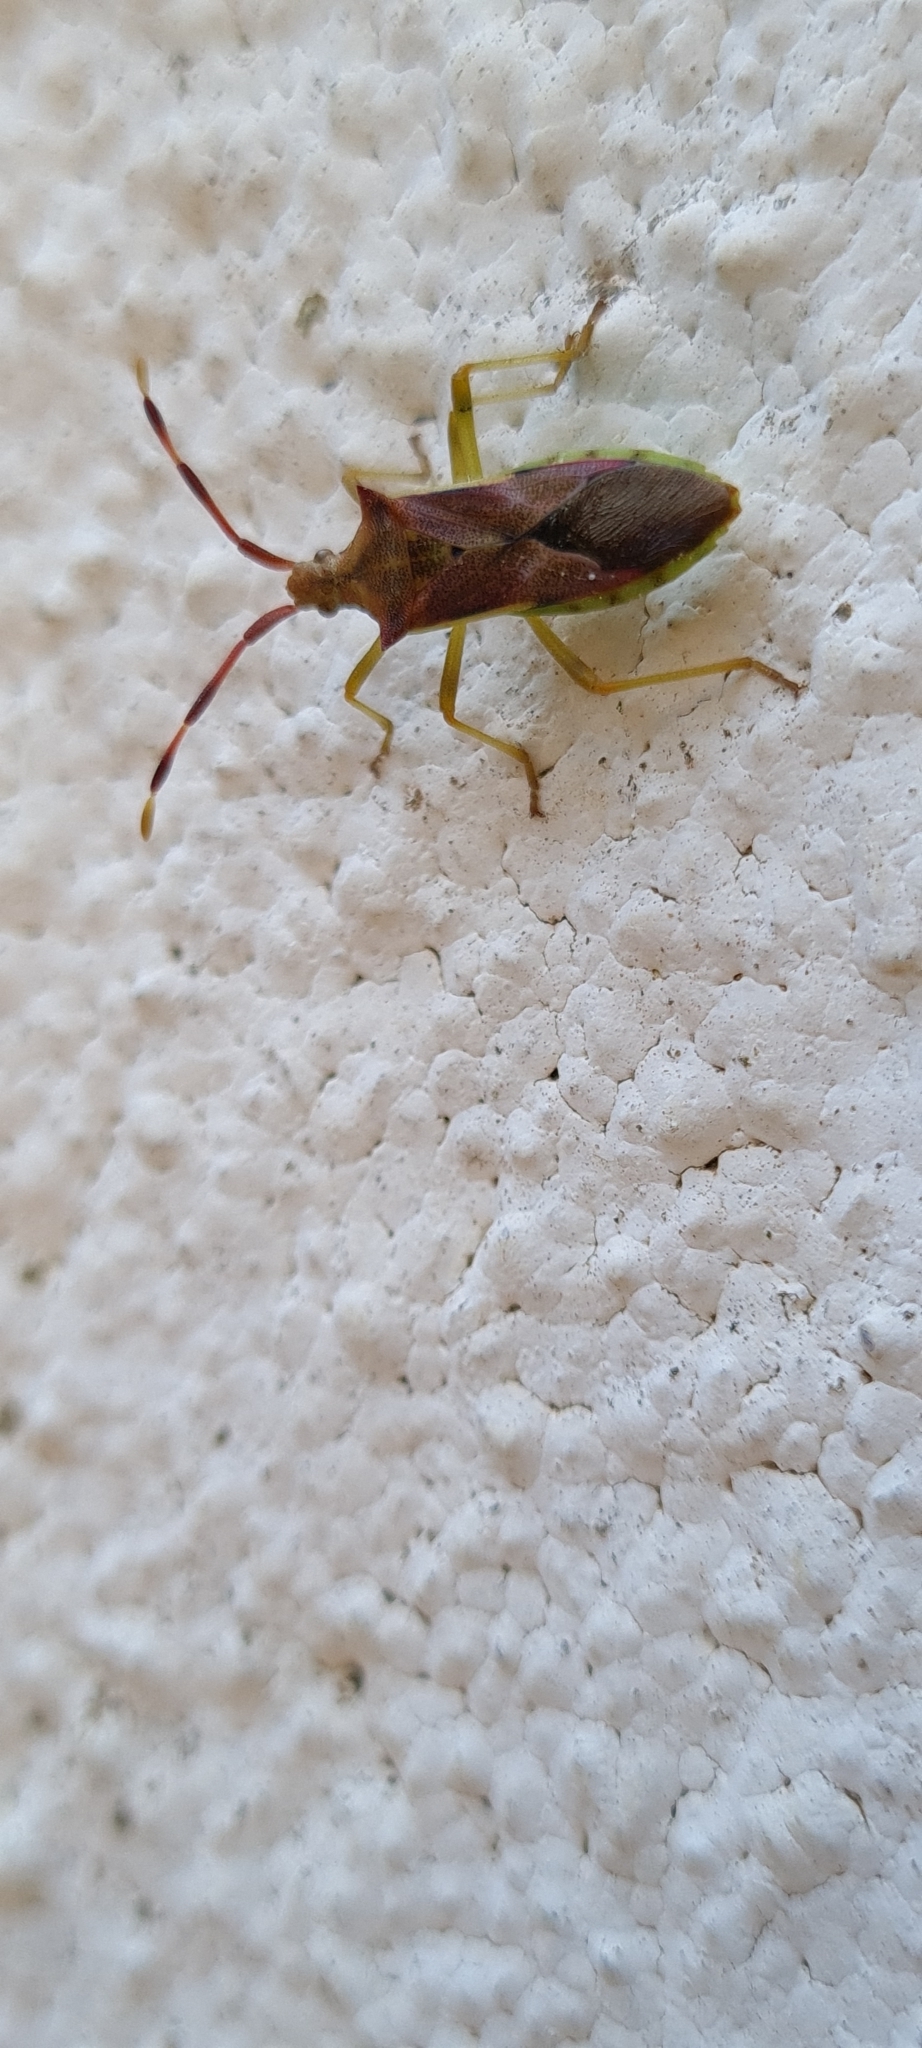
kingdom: Animalia
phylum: Arthropoda
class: Insecta
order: Hemiptera
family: Coreidae
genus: Gonocerus
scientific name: Gonocerus juniperi
